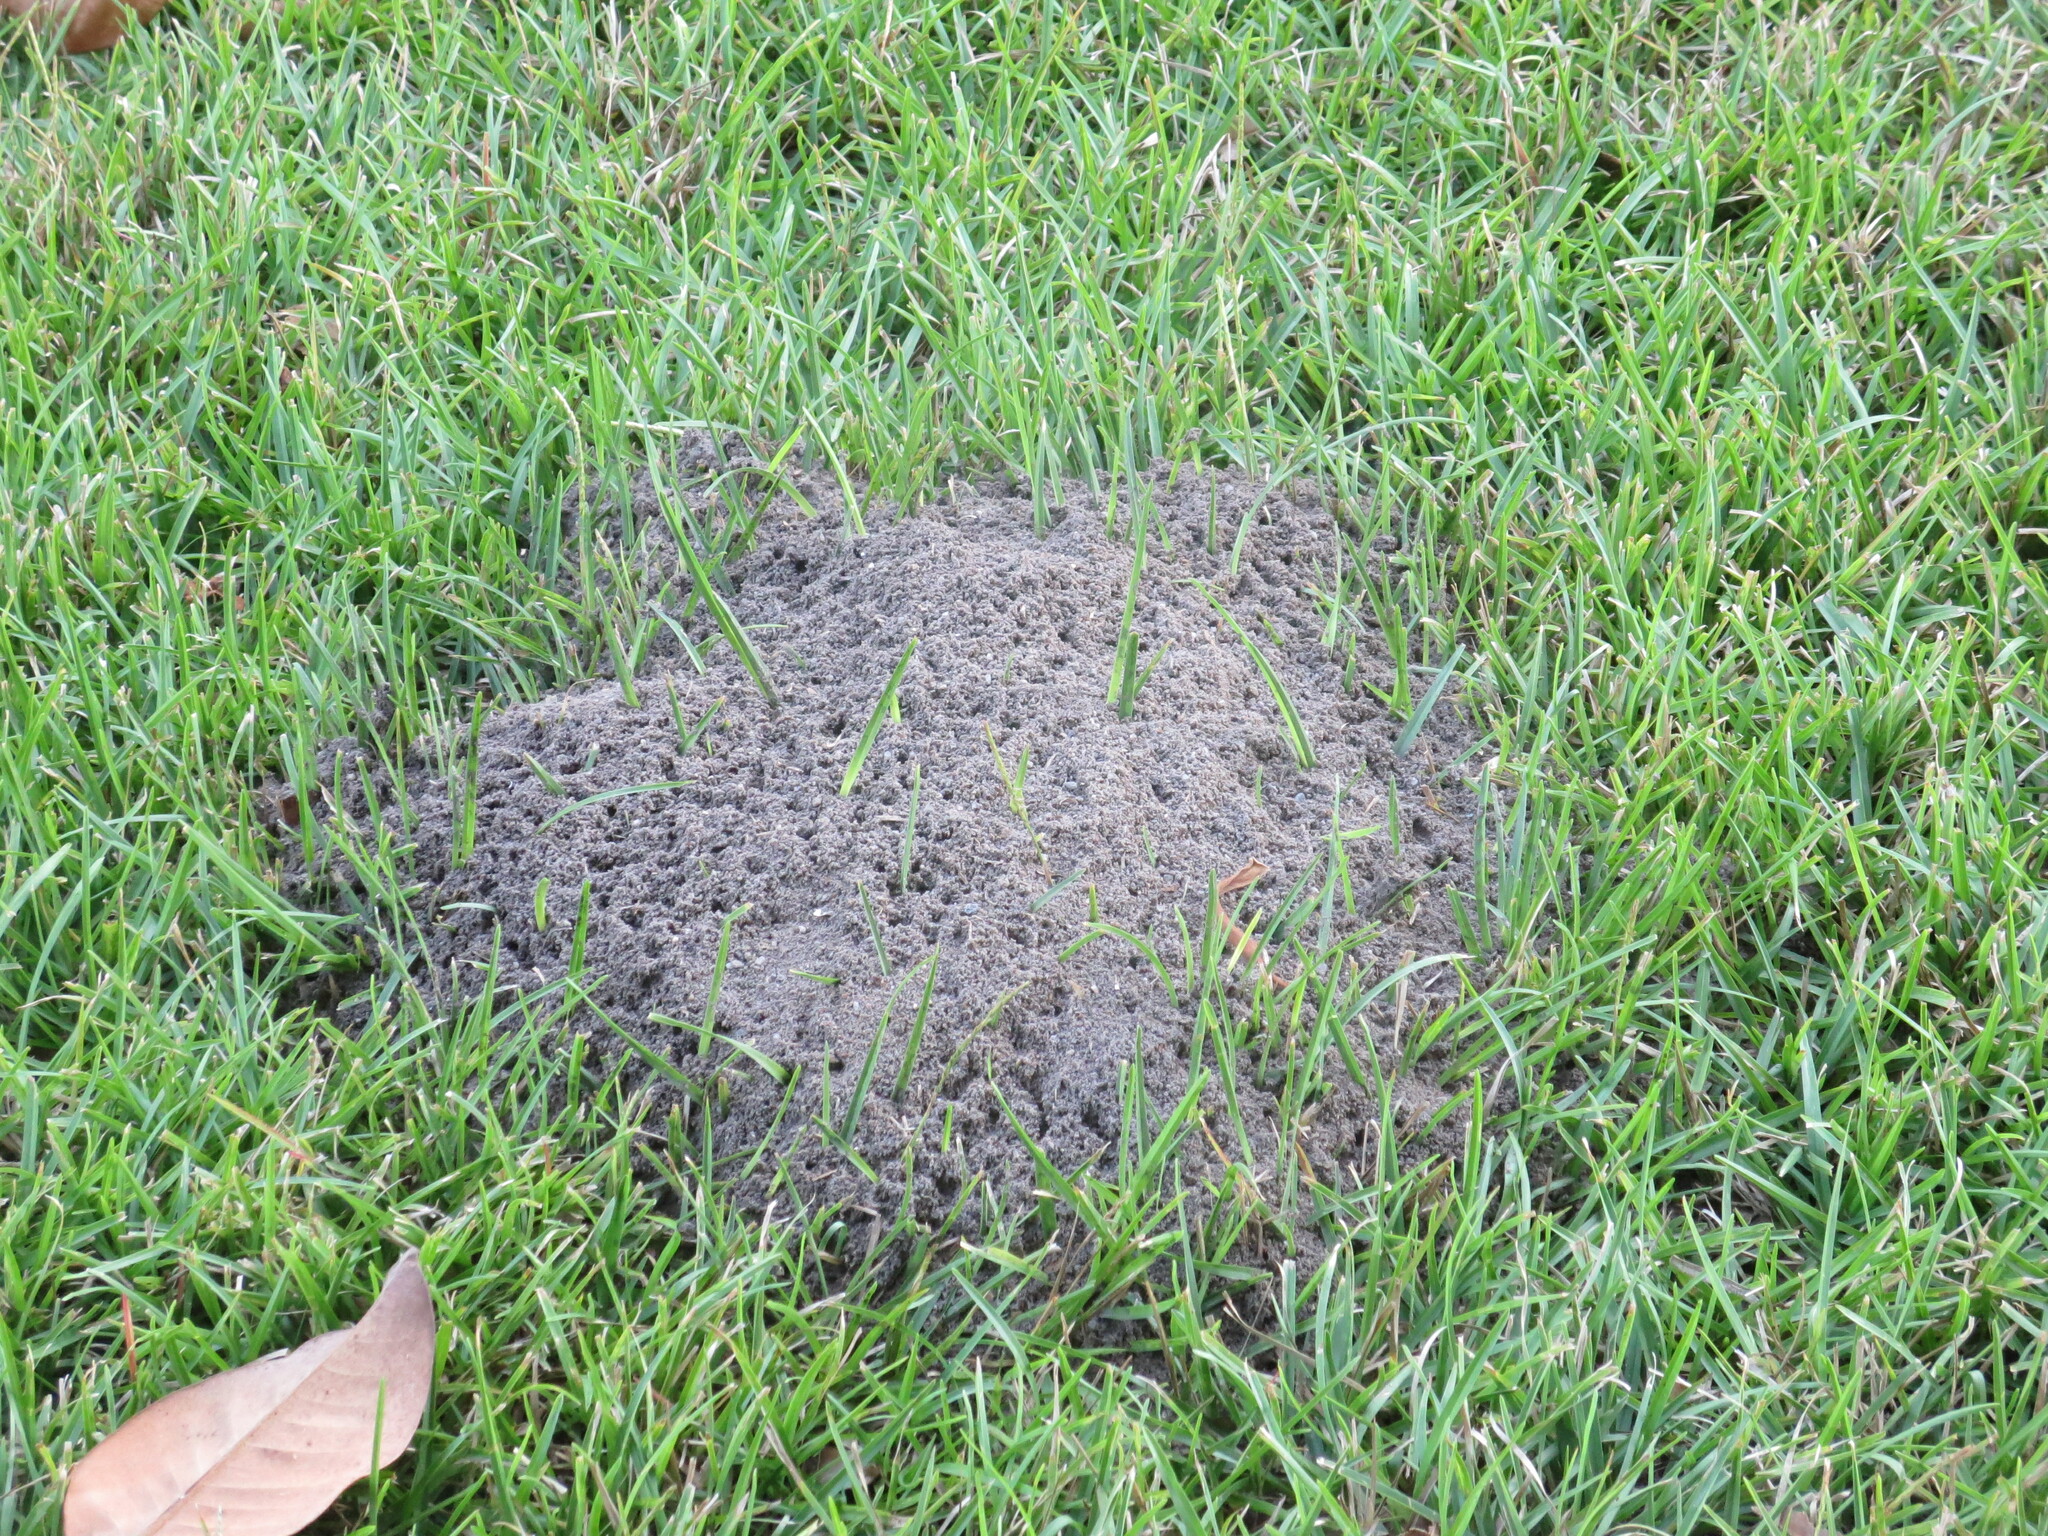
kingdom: Animalia
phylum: Arthropoda
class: Insecta
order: Hymenoptera
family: Formicidae
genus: Solenopsis
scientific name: Solenopsis invicta
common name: Red imported fire ant
